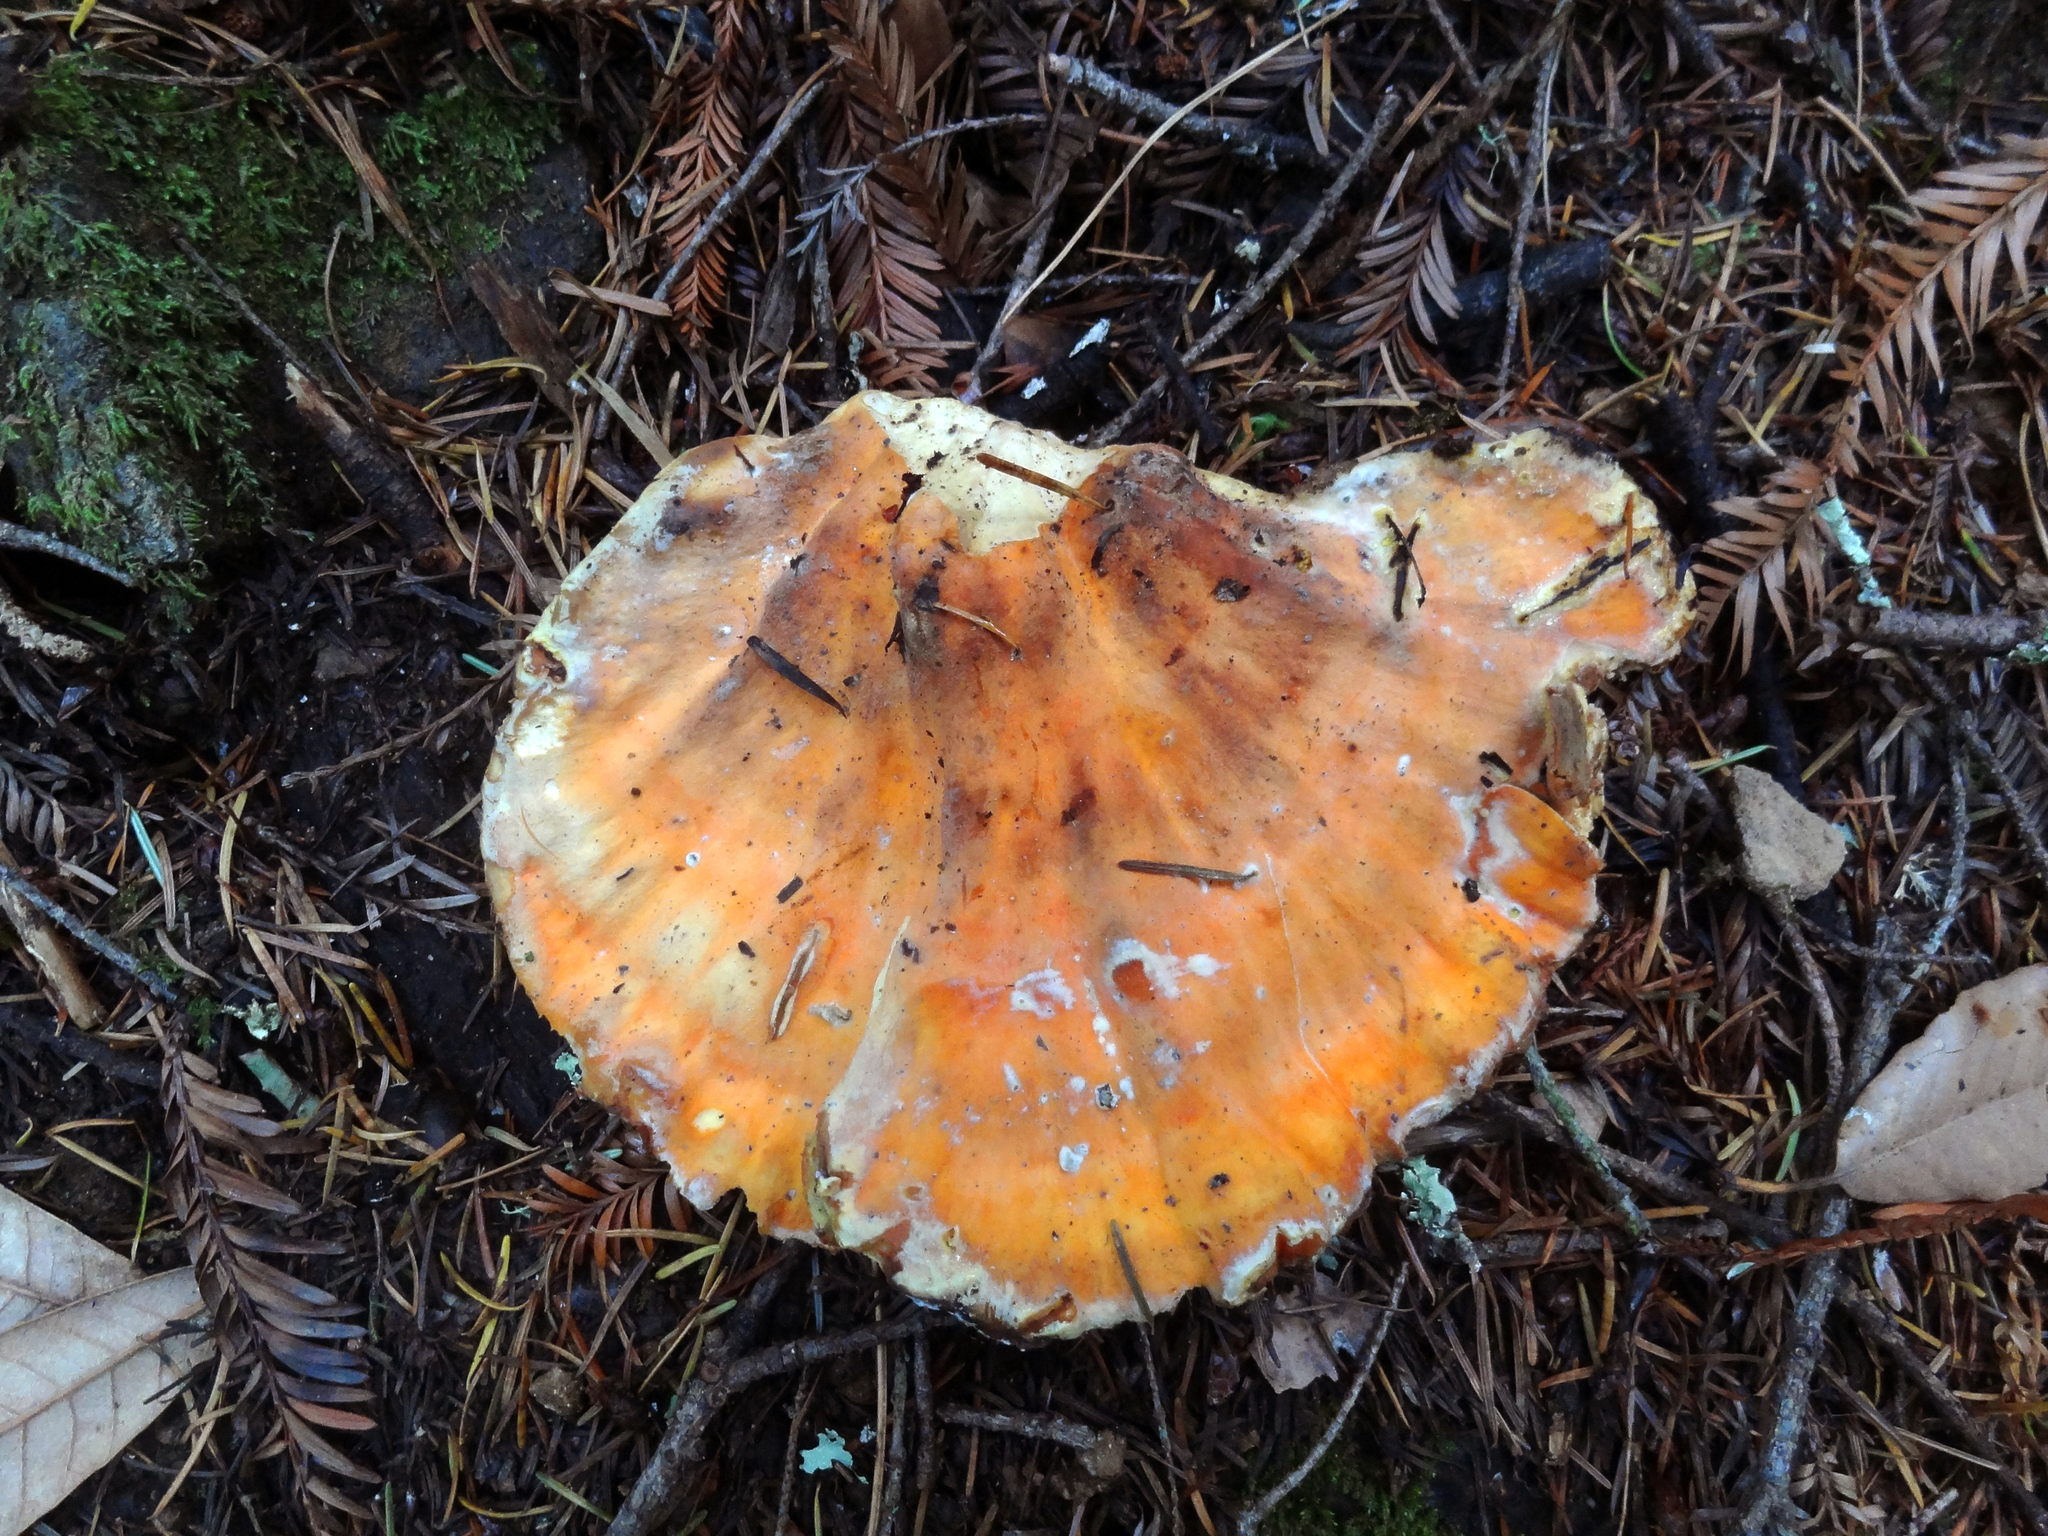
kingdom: Fungi
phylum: Basidiomycota
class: Agaricomycetes
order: Polyporales
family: Laetiporaceae
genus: Laetiporus
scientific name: Laetiporus conifericola
